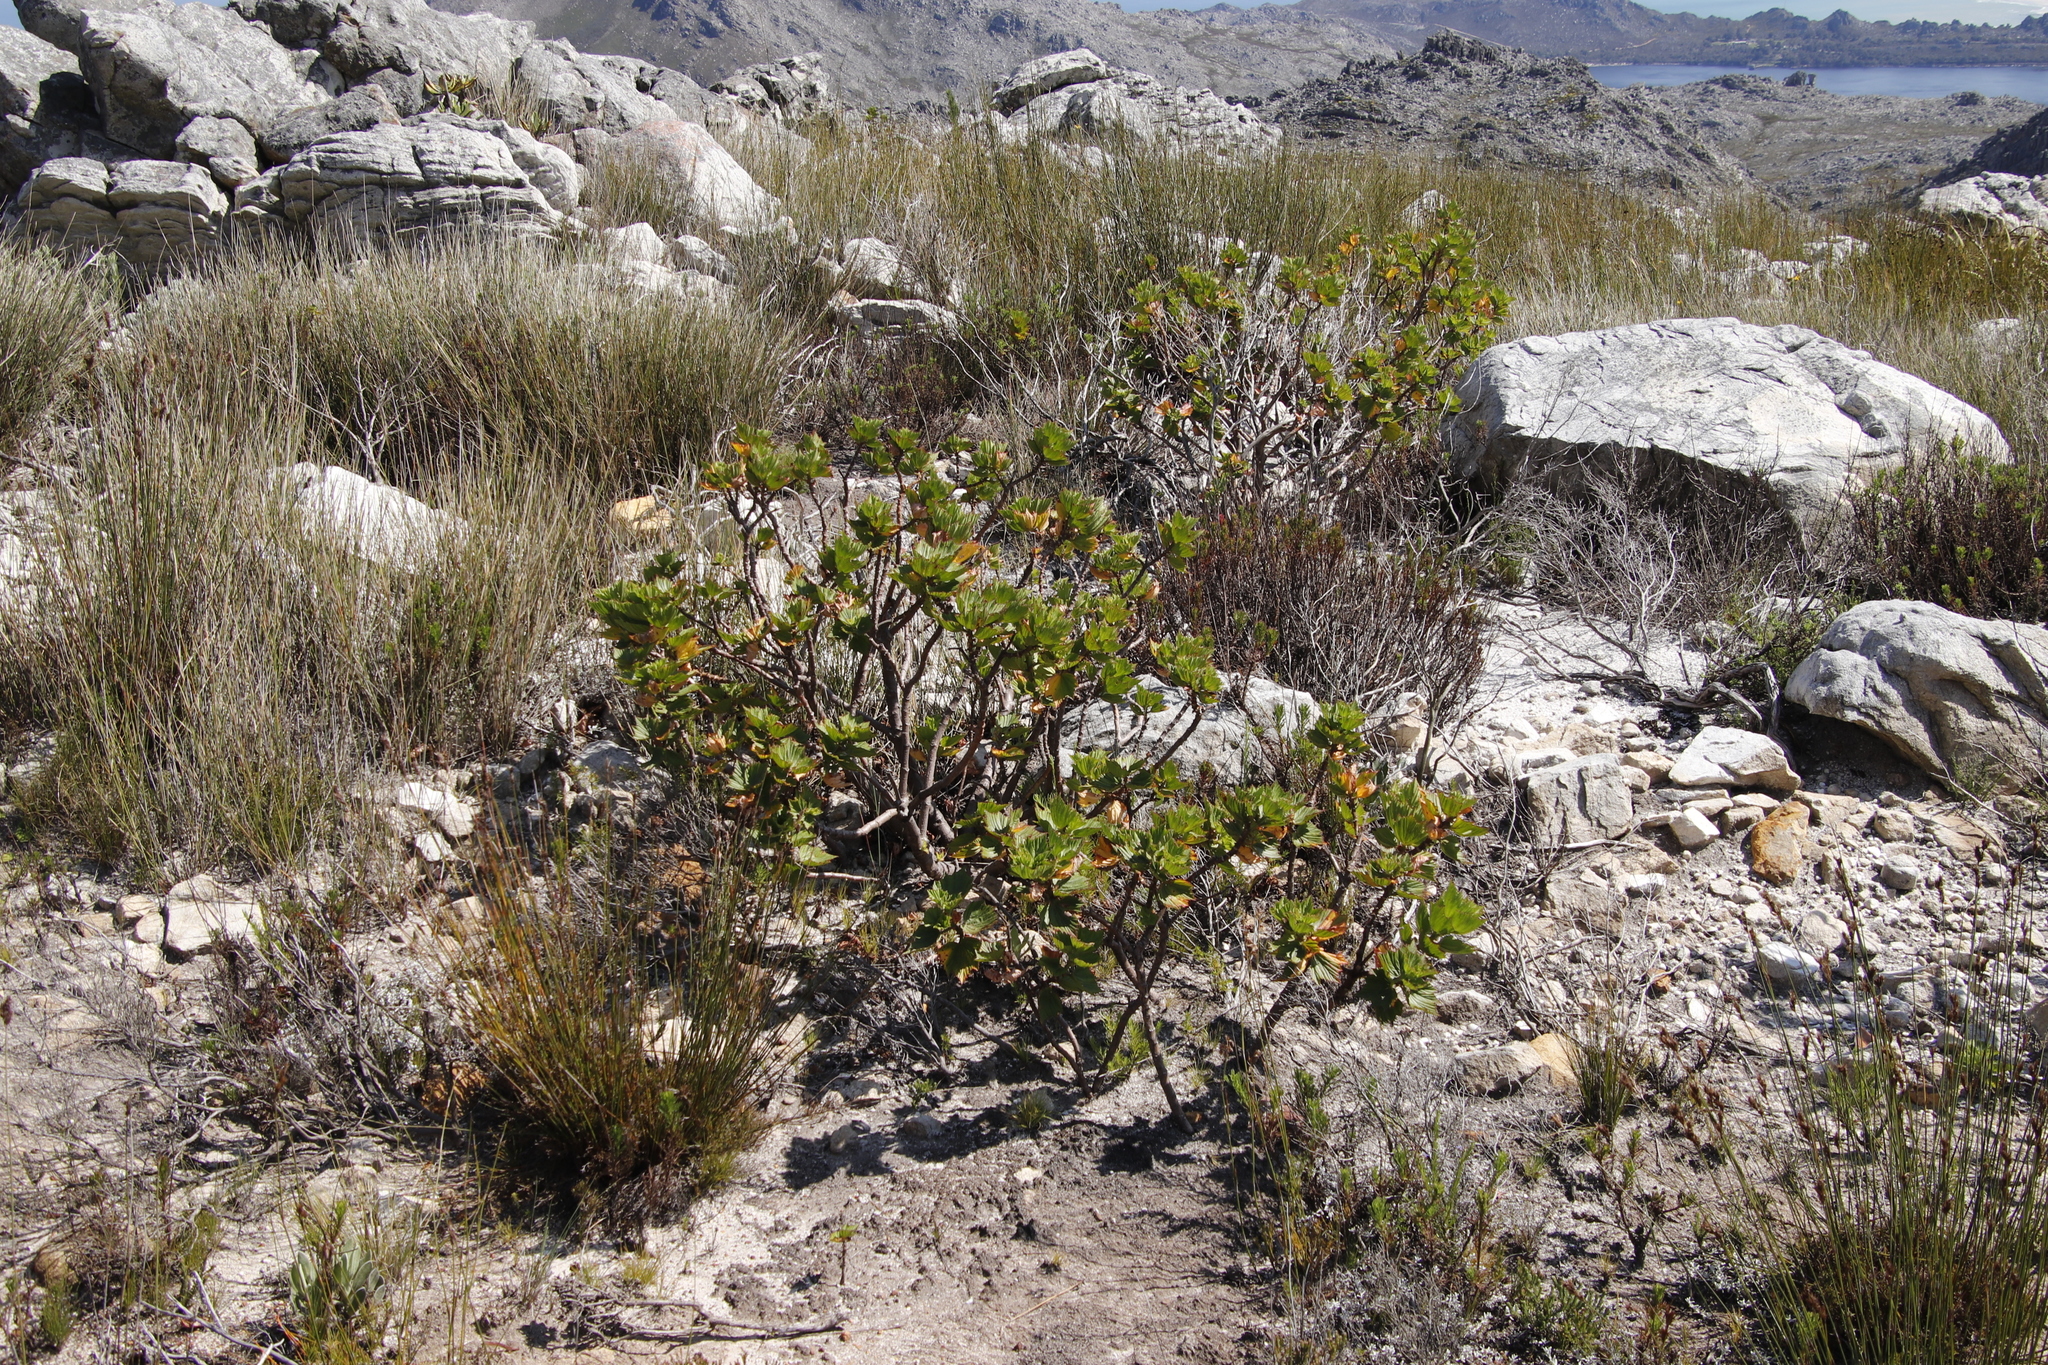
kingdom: Plantae
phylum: Tracheophyta
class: Magnoliopsida
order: Geraniales
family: Geraniaceae
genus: Pelargonium
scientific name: Pelargonium cucullatum
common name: Tree pelargonium
